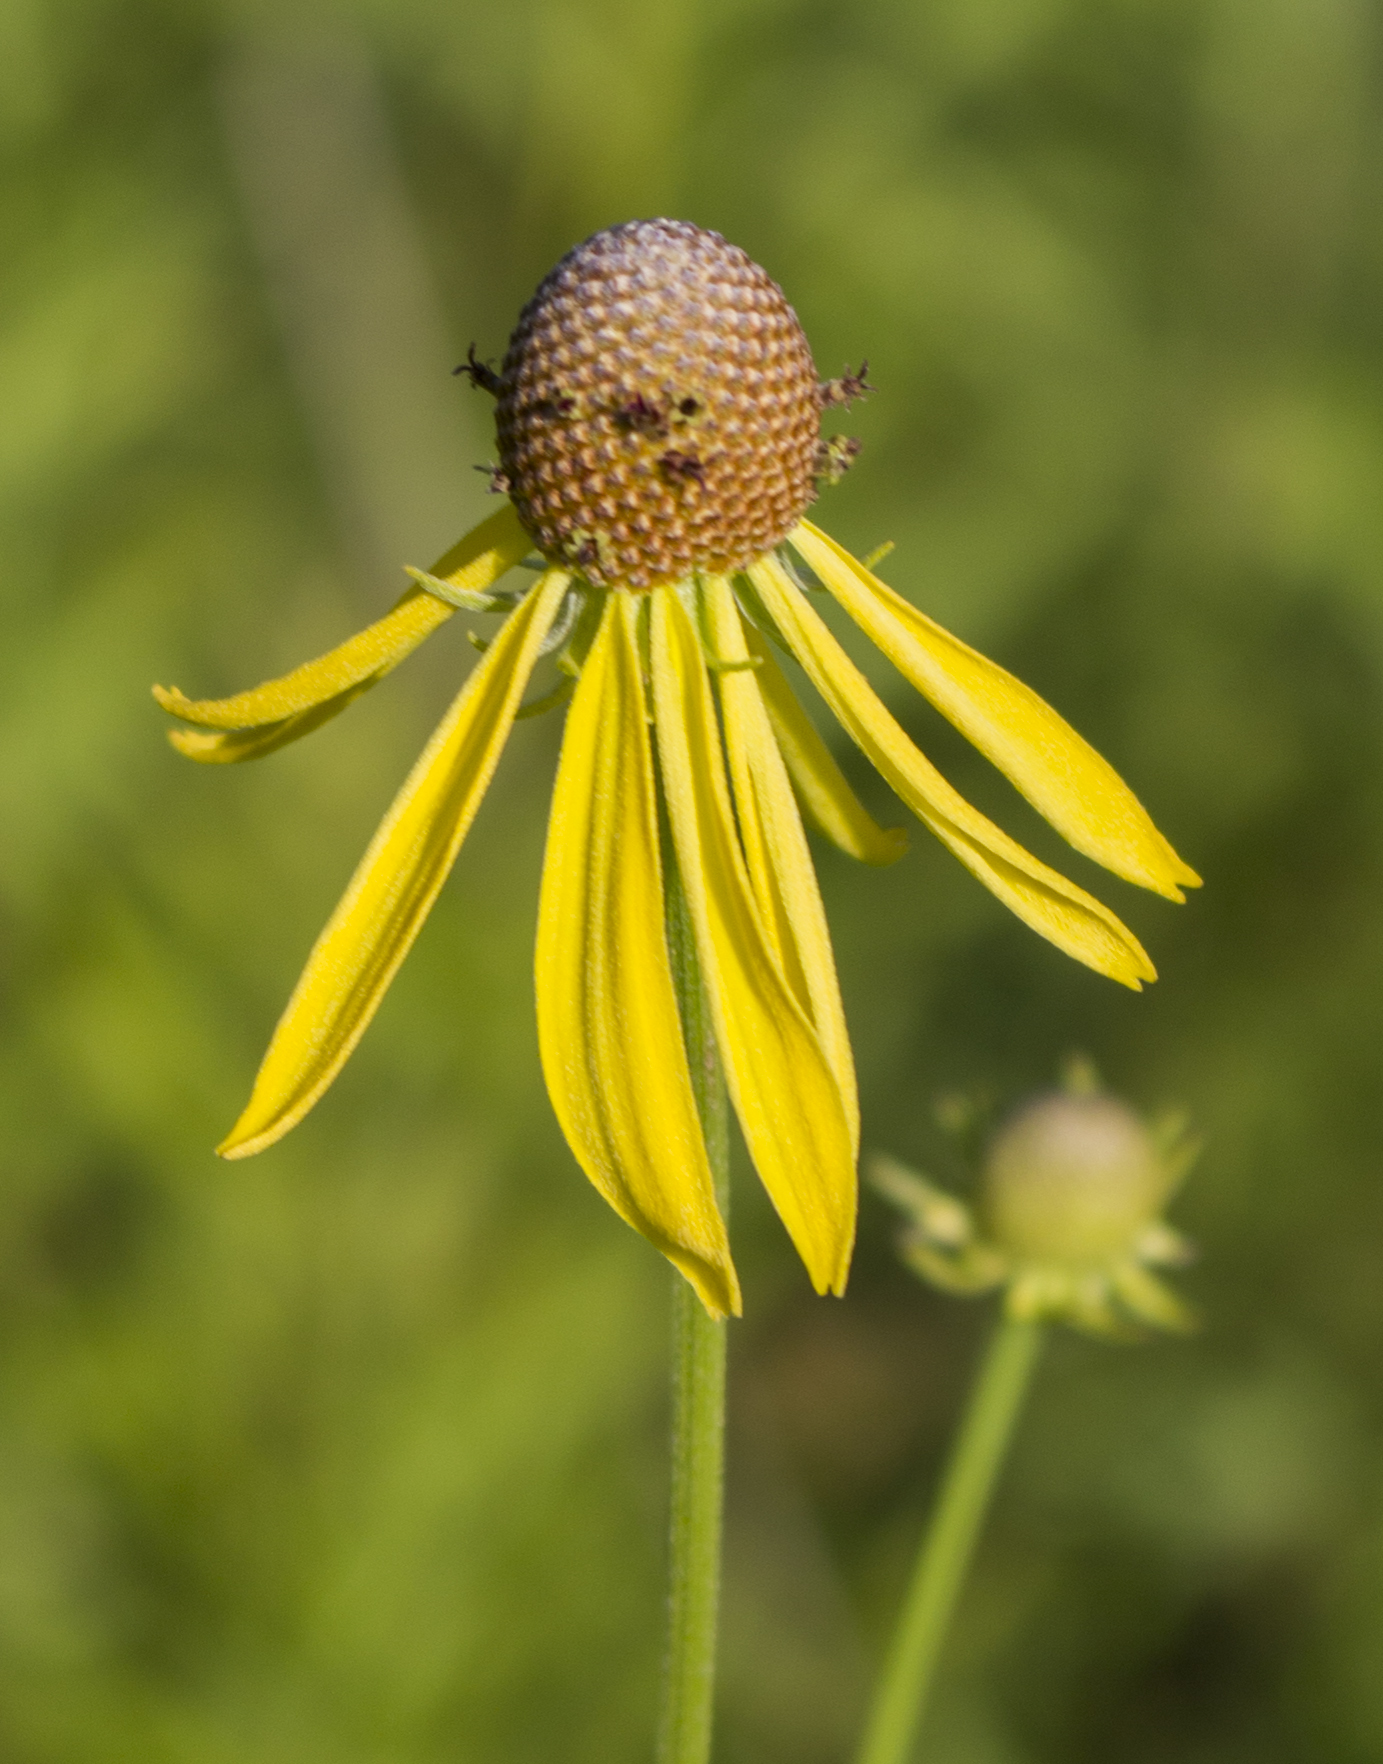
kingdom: Plantae
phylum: Tracheophyta
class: Magnoliopsida
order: Asterales
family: Asteraceae
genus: Ratibida
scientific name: Ratibida pinnata
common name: Drooping prairie-coneflower
